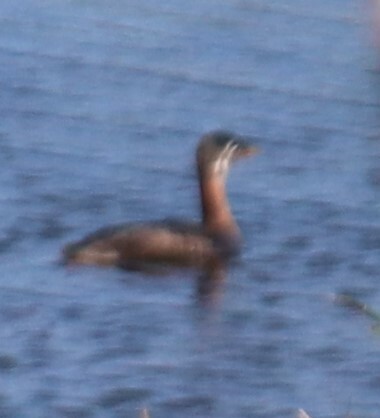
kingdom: Animalia
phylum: Chordata
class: Aves
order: Podicipediformes
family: Podicipedidae
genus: Podiceps
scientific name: Podiceps grisegena
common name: Red-necked grebe
